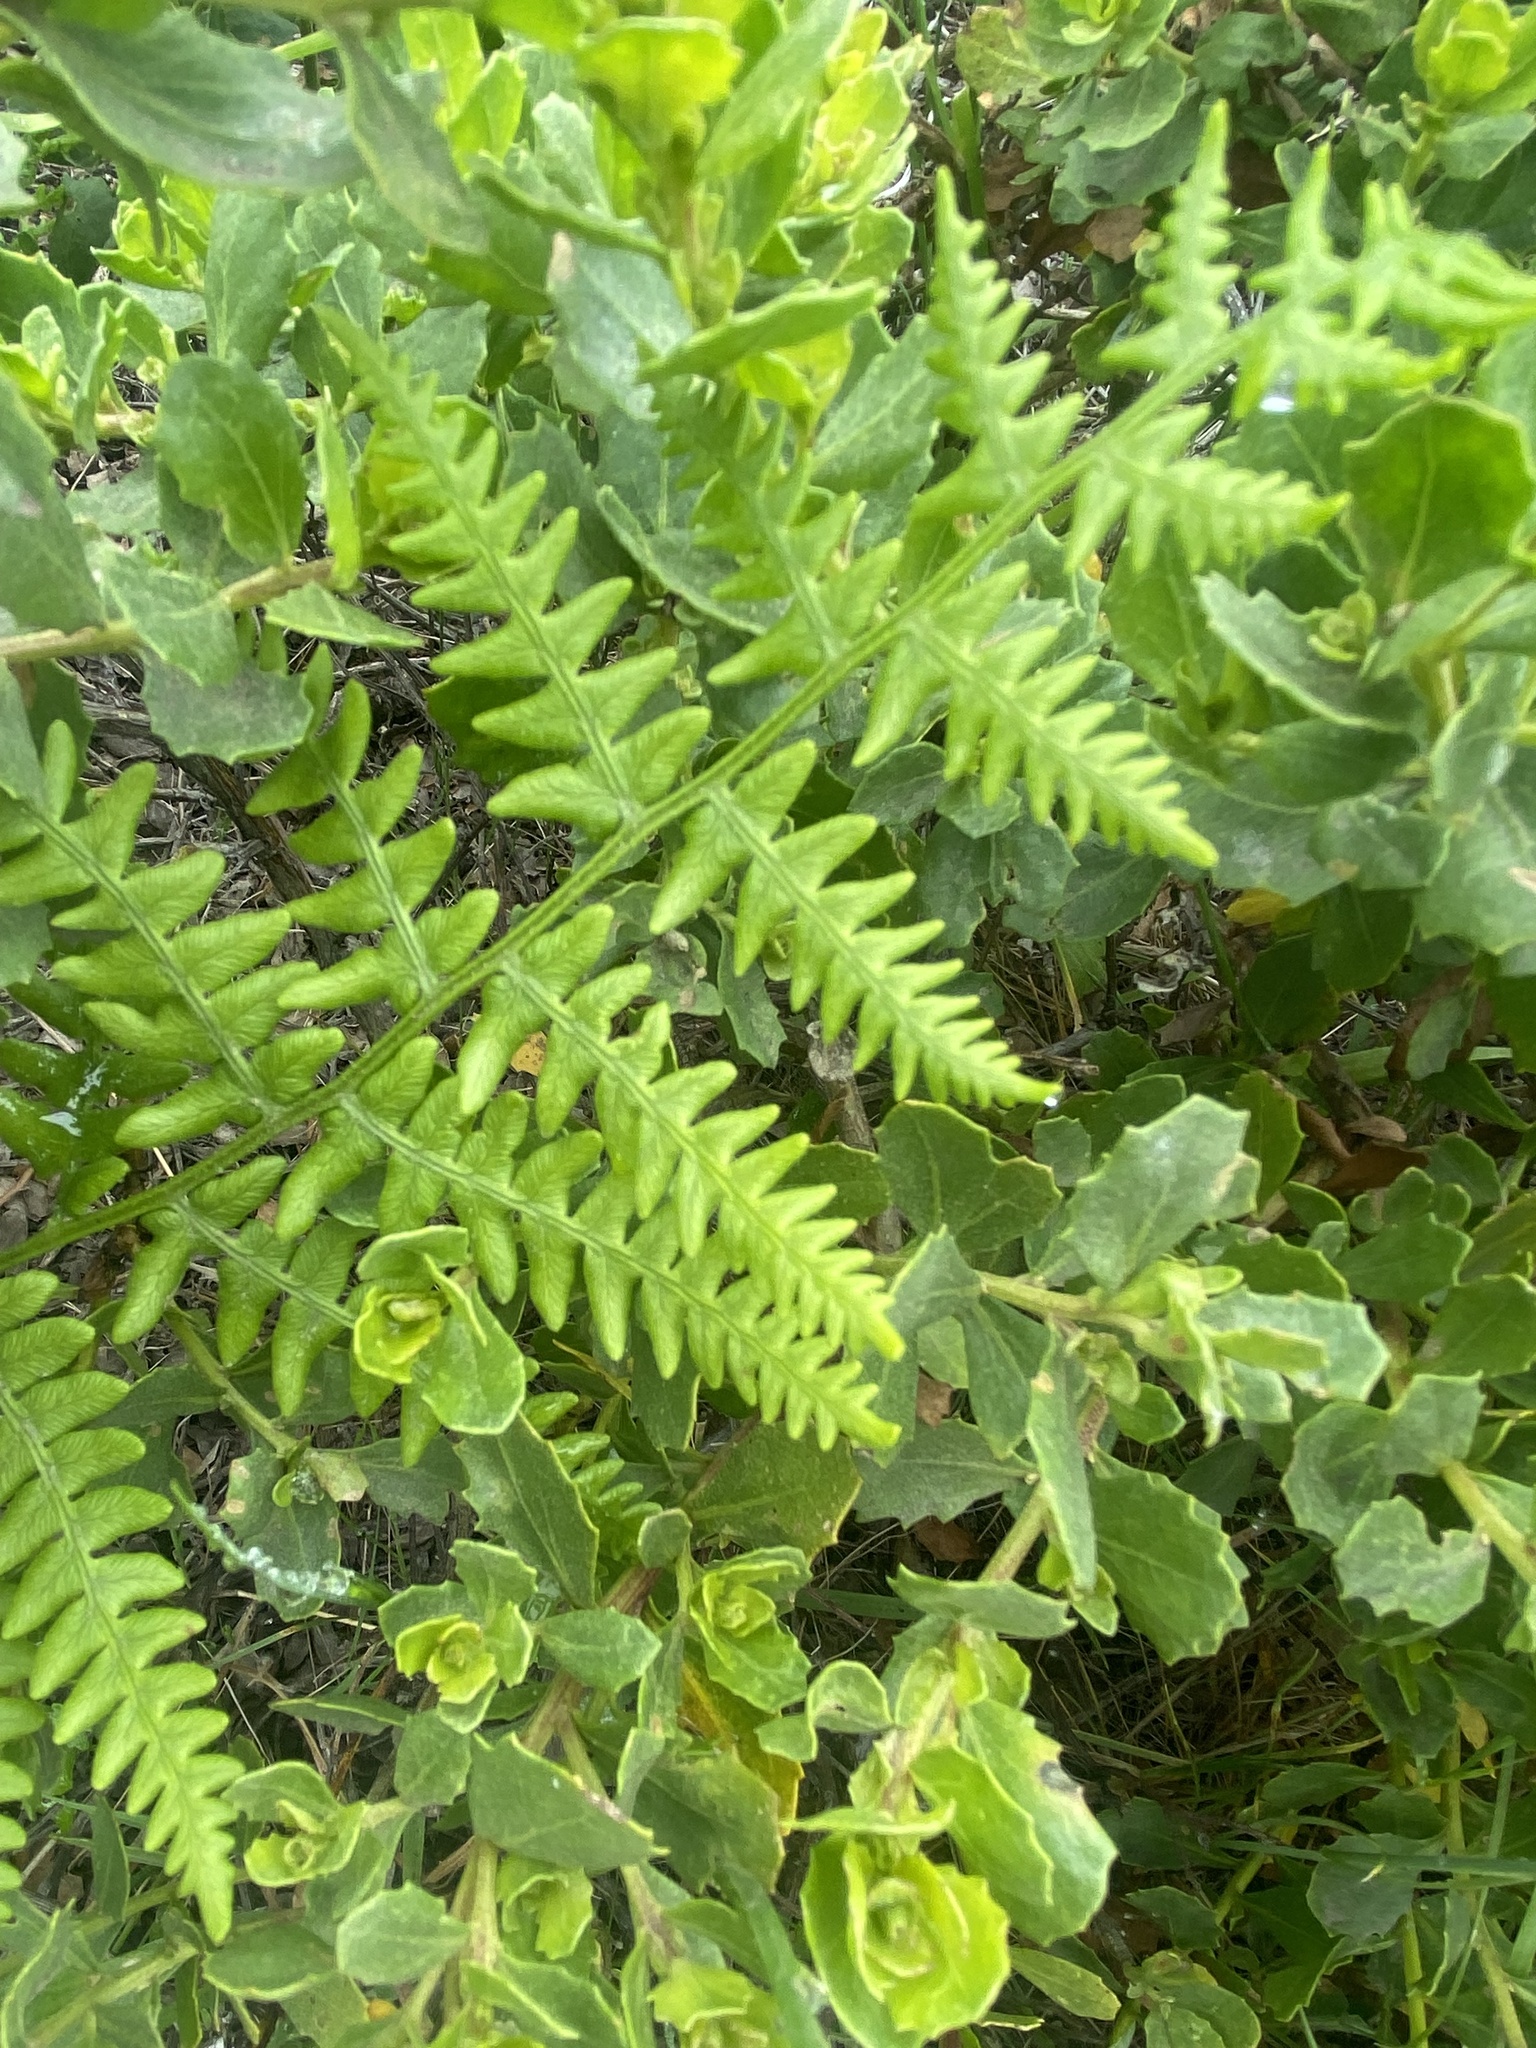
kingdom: Plantae
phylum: Tracheophyta
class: Polypodiopsida
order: Polypodiales
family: Dennstaedtiaceae
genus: Pteridium
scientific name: Pteridium aquilinum
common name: Bracken
